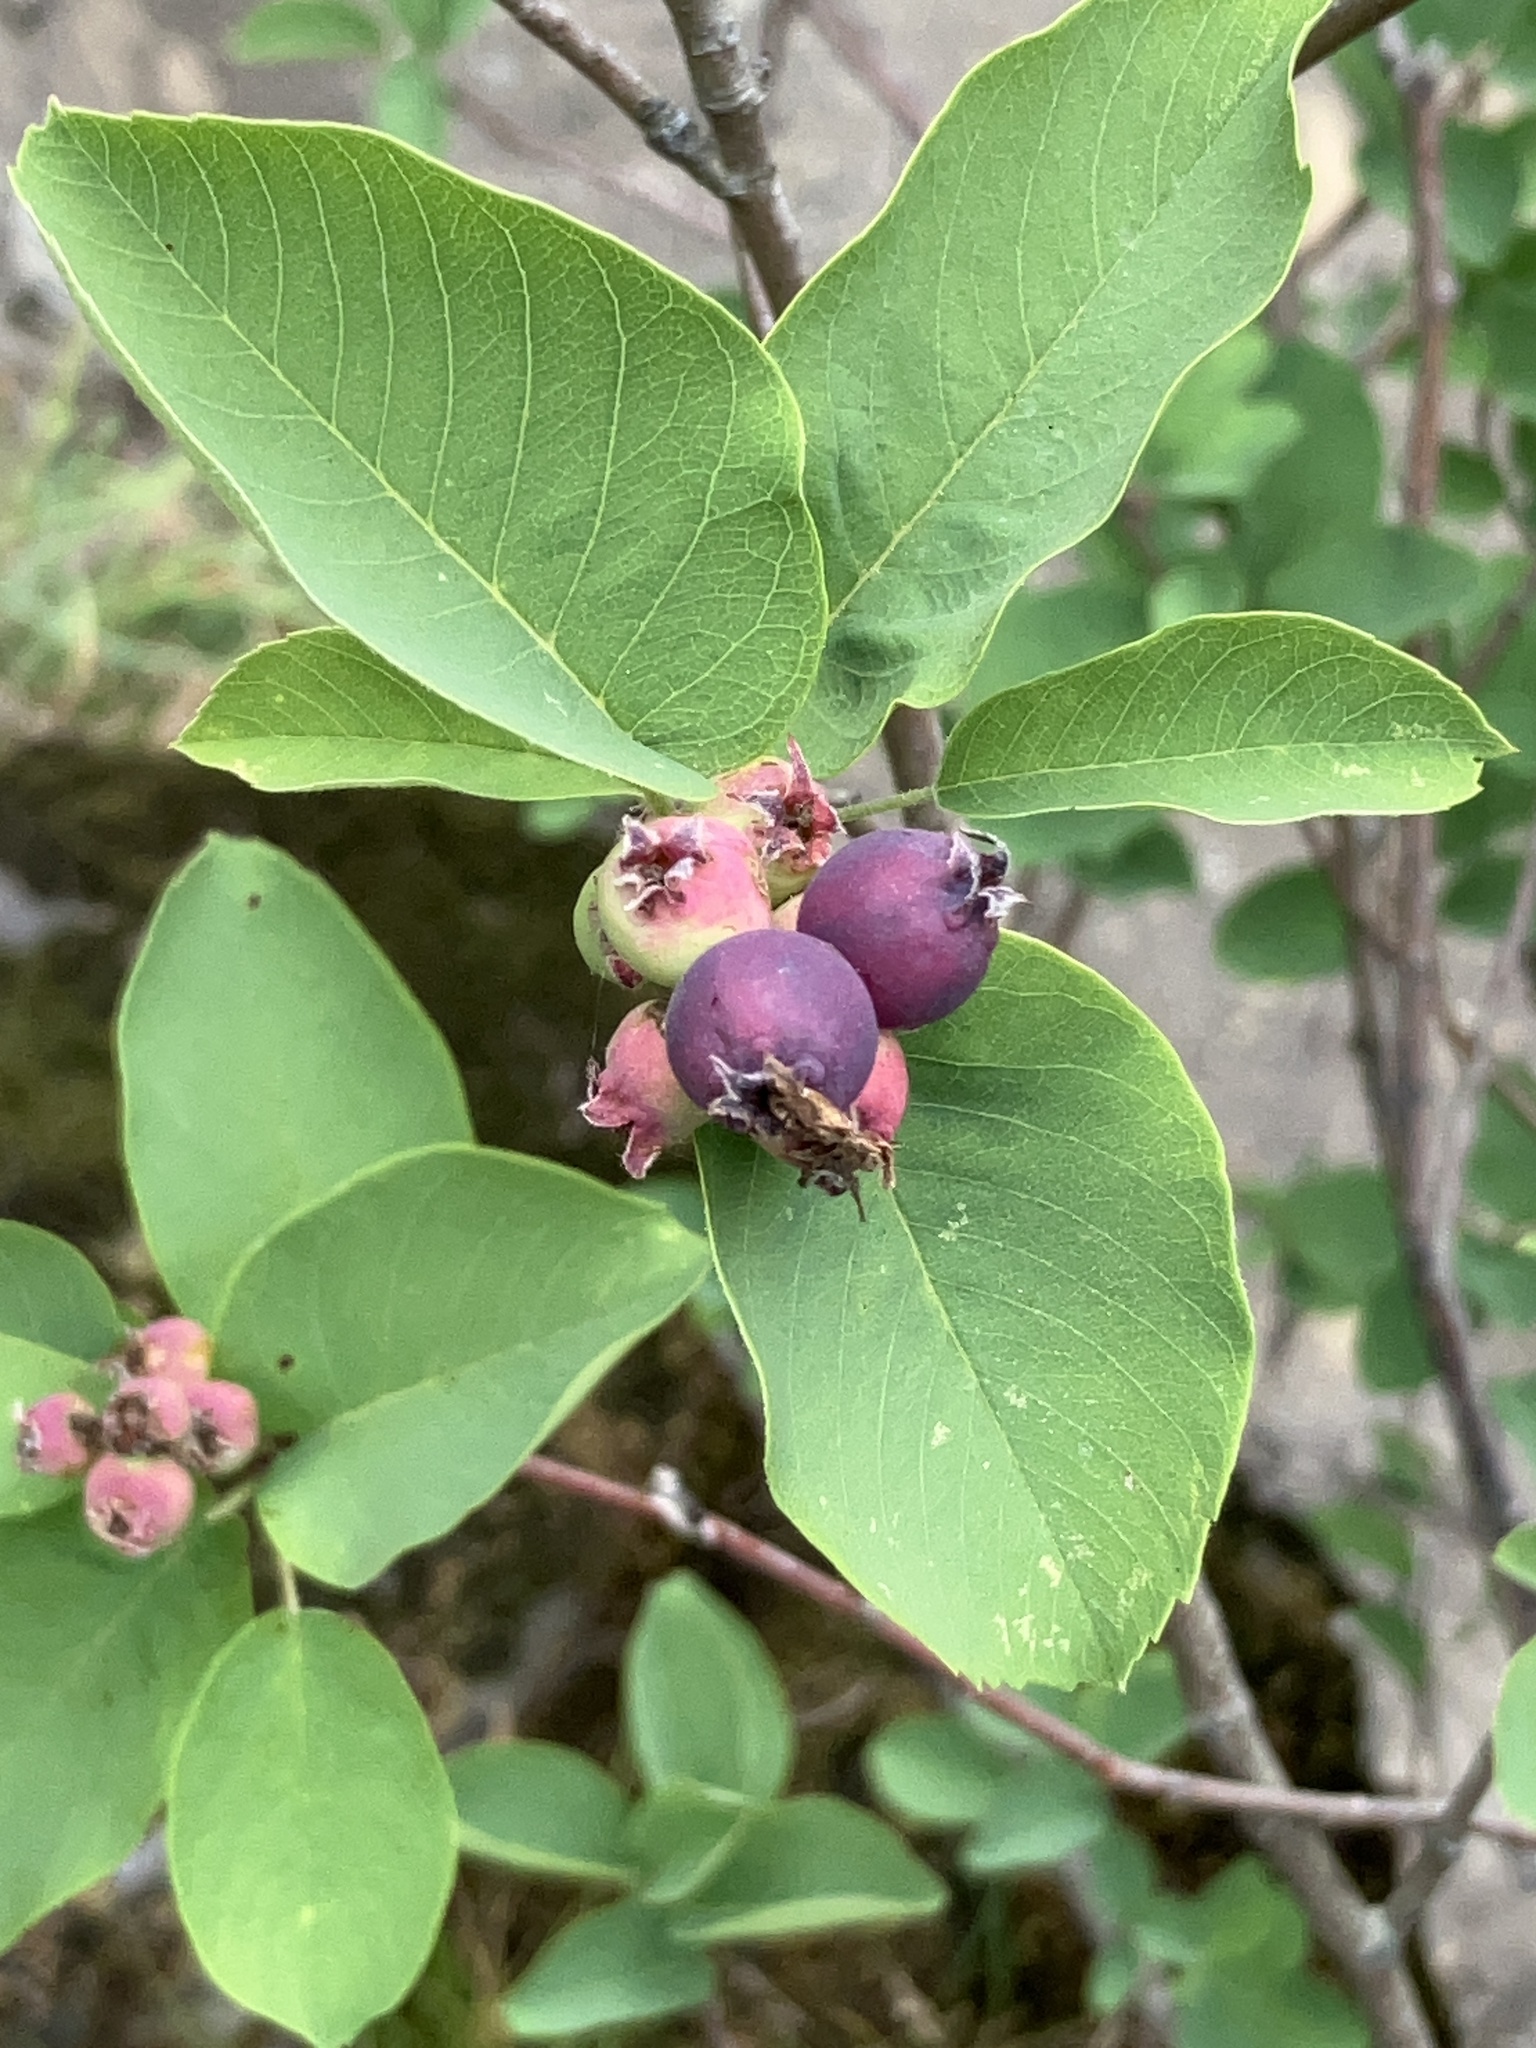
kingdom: Plantae
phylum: Tracheophyta
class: Magnoliopsida
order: Rosales
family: Rosaceae
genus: Amelanchier
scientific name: Amelanchier alnifolia
